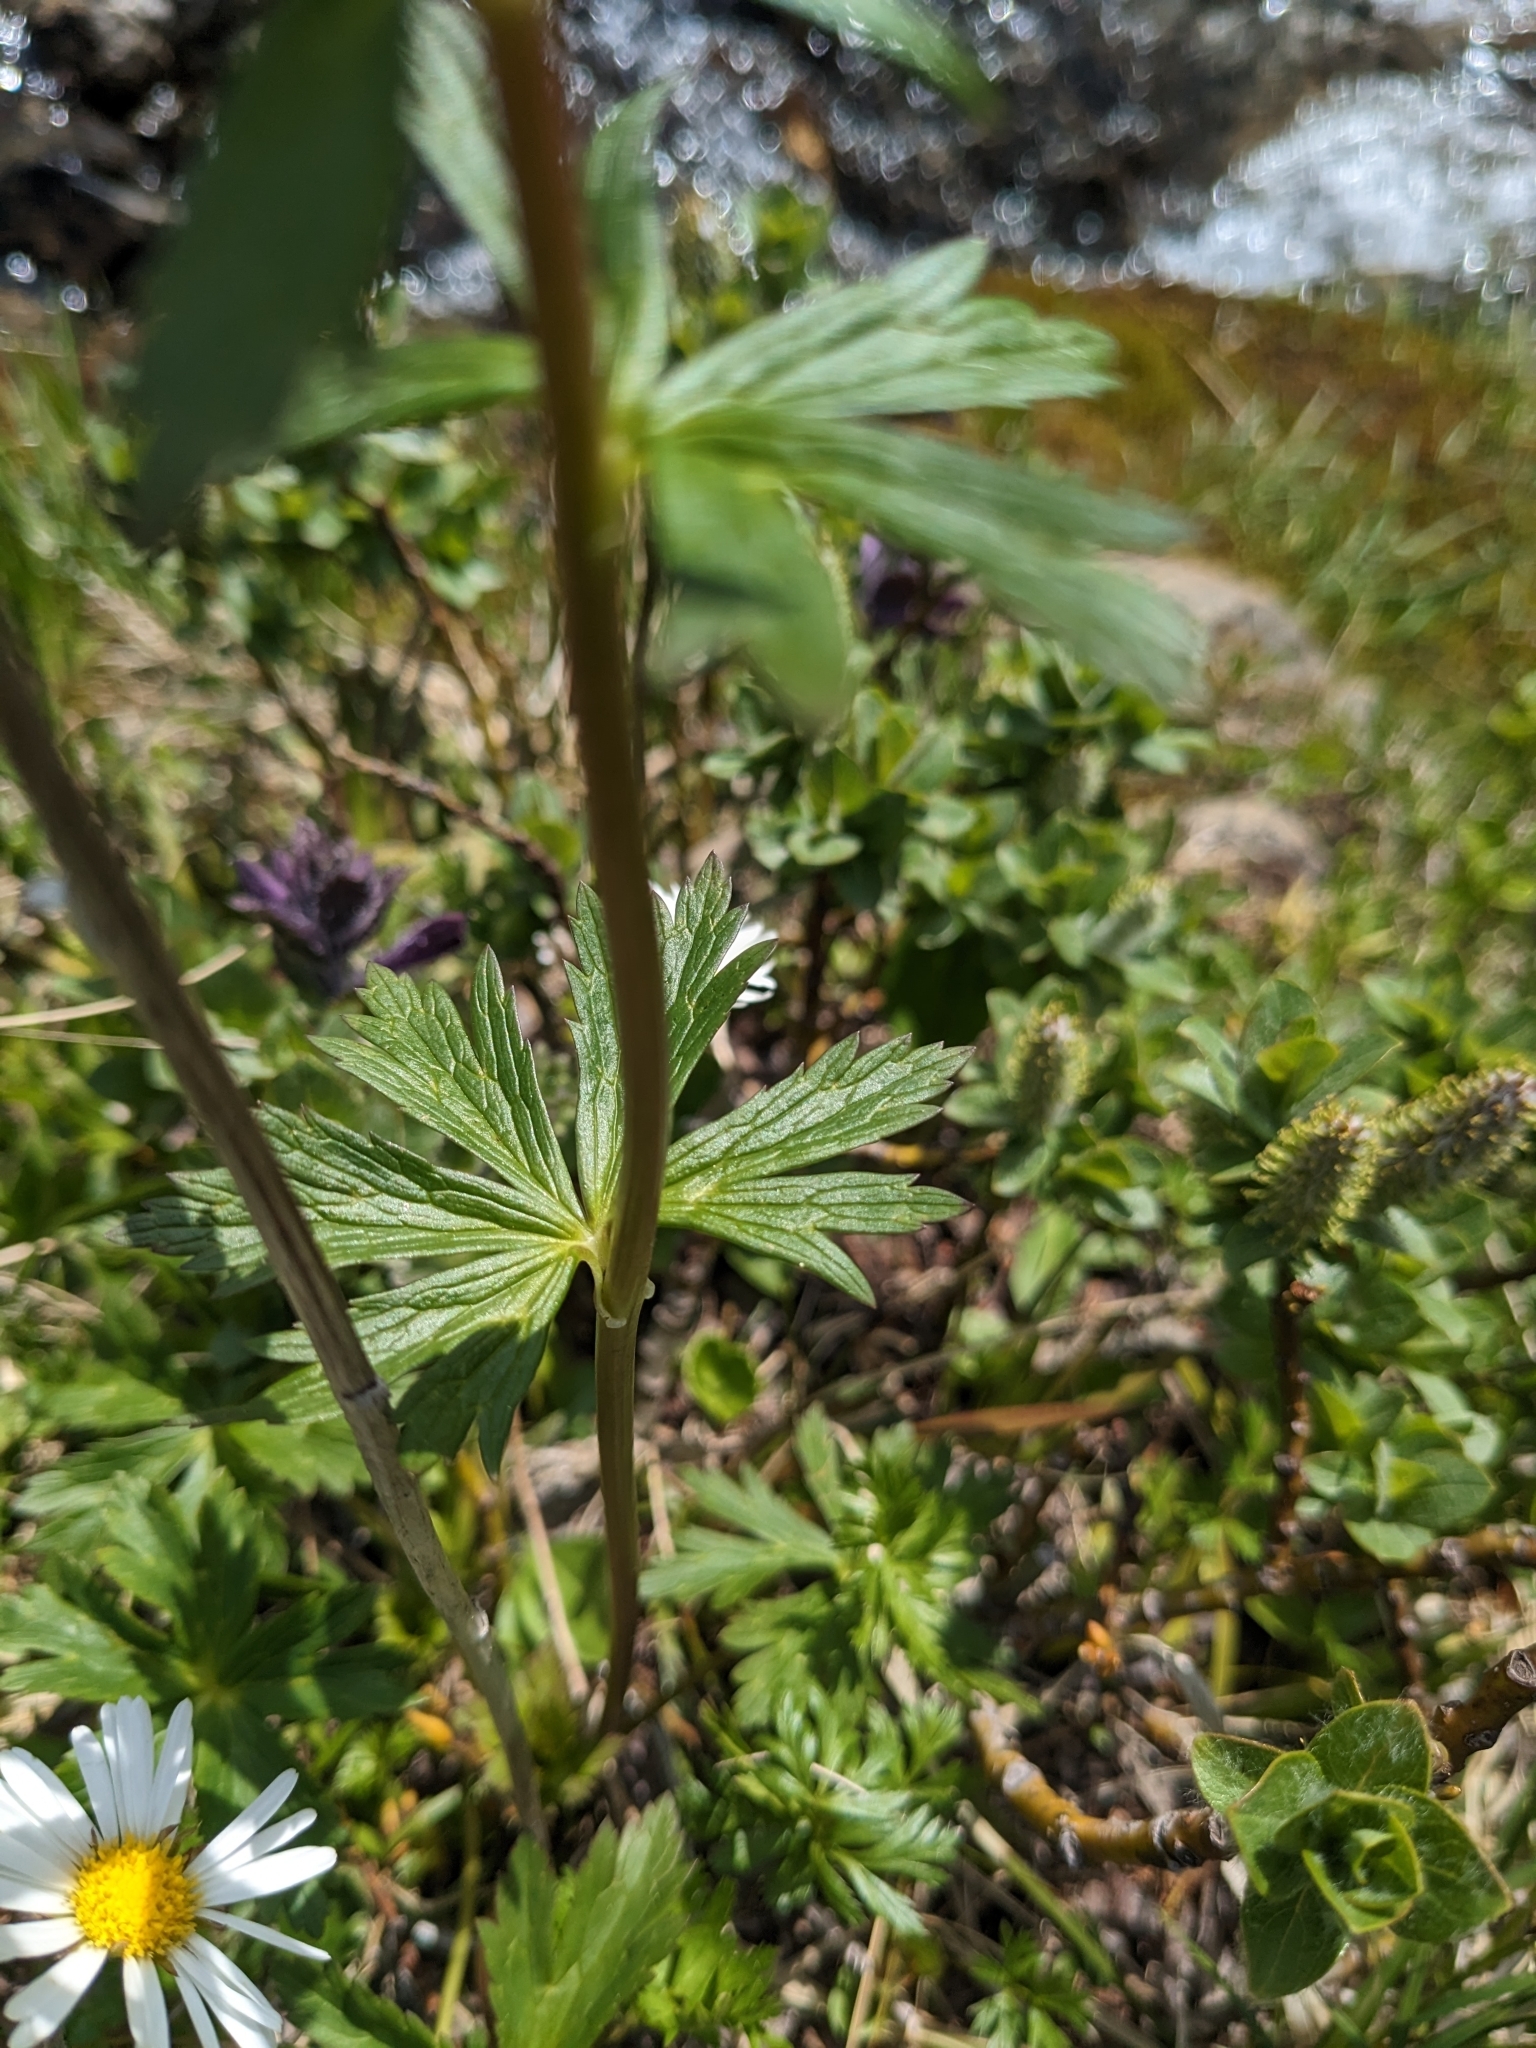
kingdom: Plantae
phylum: Tracheophyta
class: Magnoliopsida
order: Ranunculales
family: Ranunculaceae
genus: Trollius
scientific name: Trollius europaeus
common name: European globeflower
